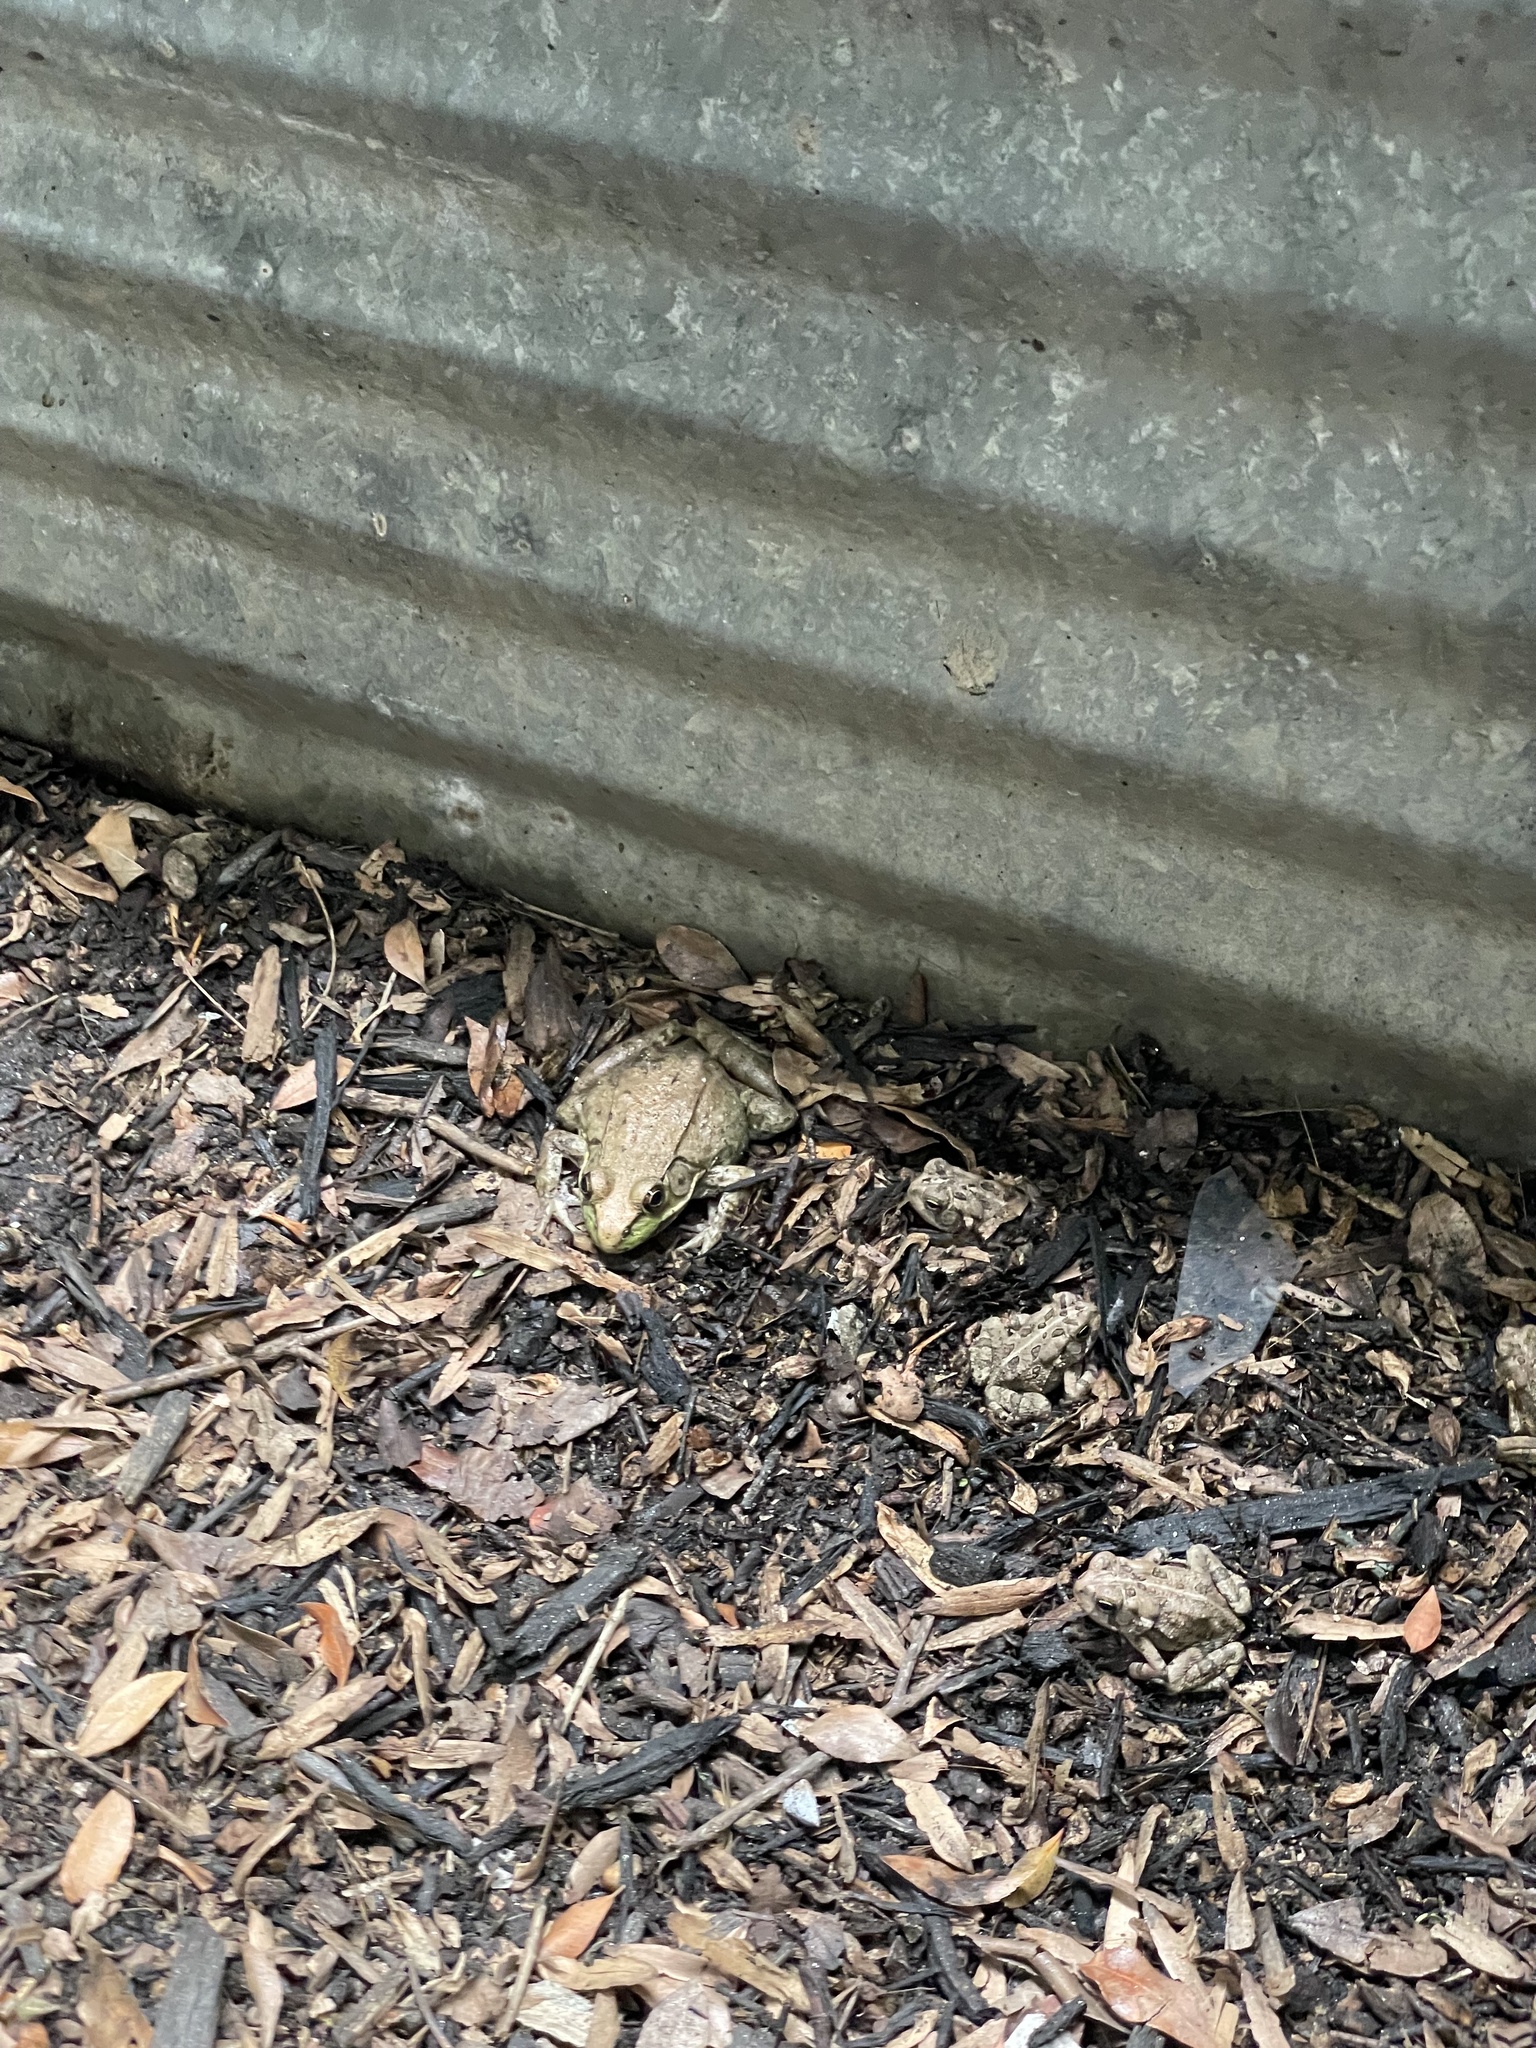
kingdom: Animalia
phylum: Chordata
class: Amphibia
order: Anura
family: Ranidae
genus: Lithobates
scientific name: Lithobates clamitans
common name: Green frog
